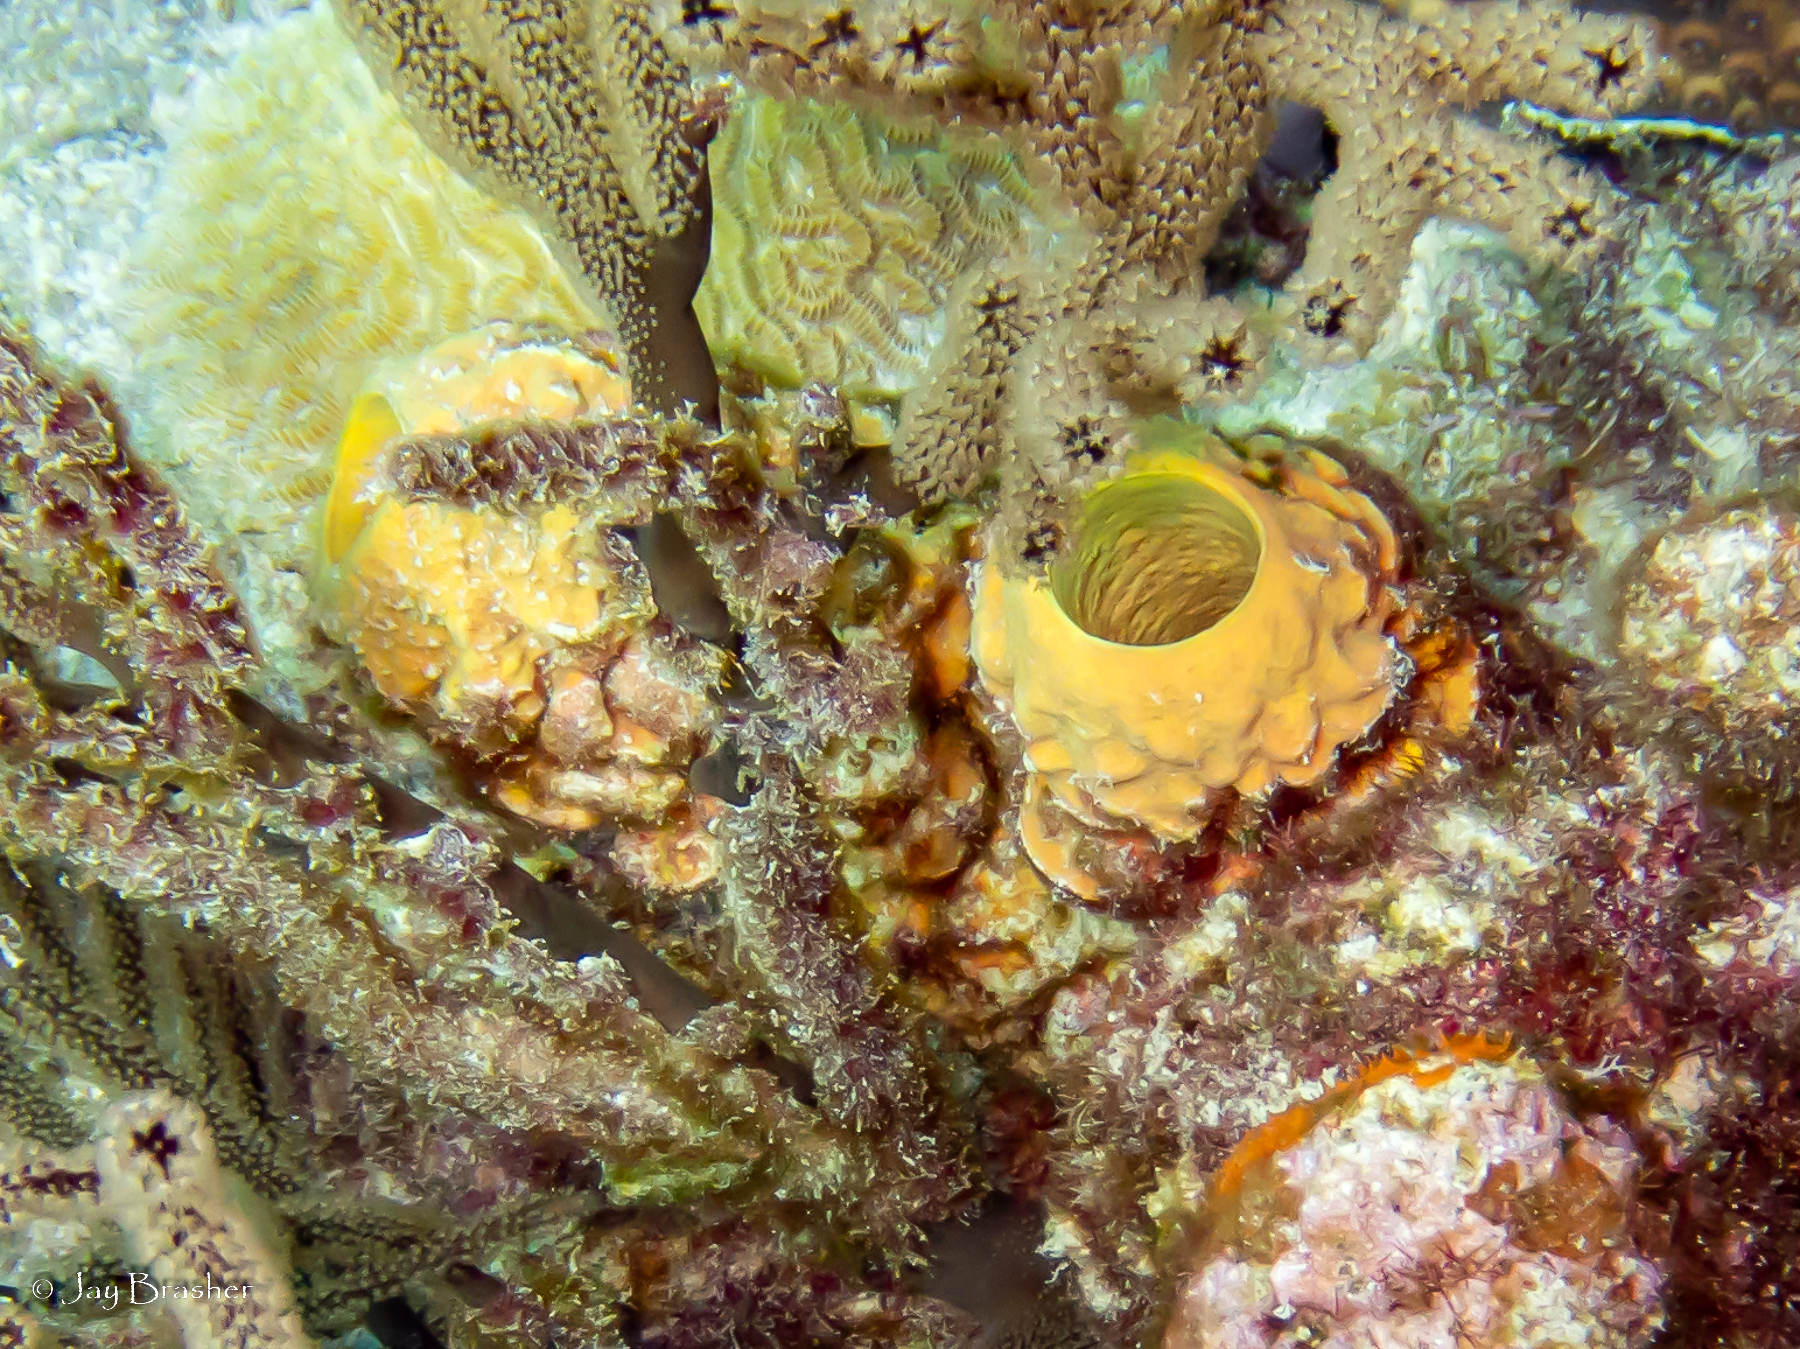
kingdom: Animalia
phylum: Porifera
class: Demospongiae
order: Verongiida
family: Aplysinidae
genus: Aplysina
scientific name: Aplysina archeri
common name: Stove-pipe sponge
